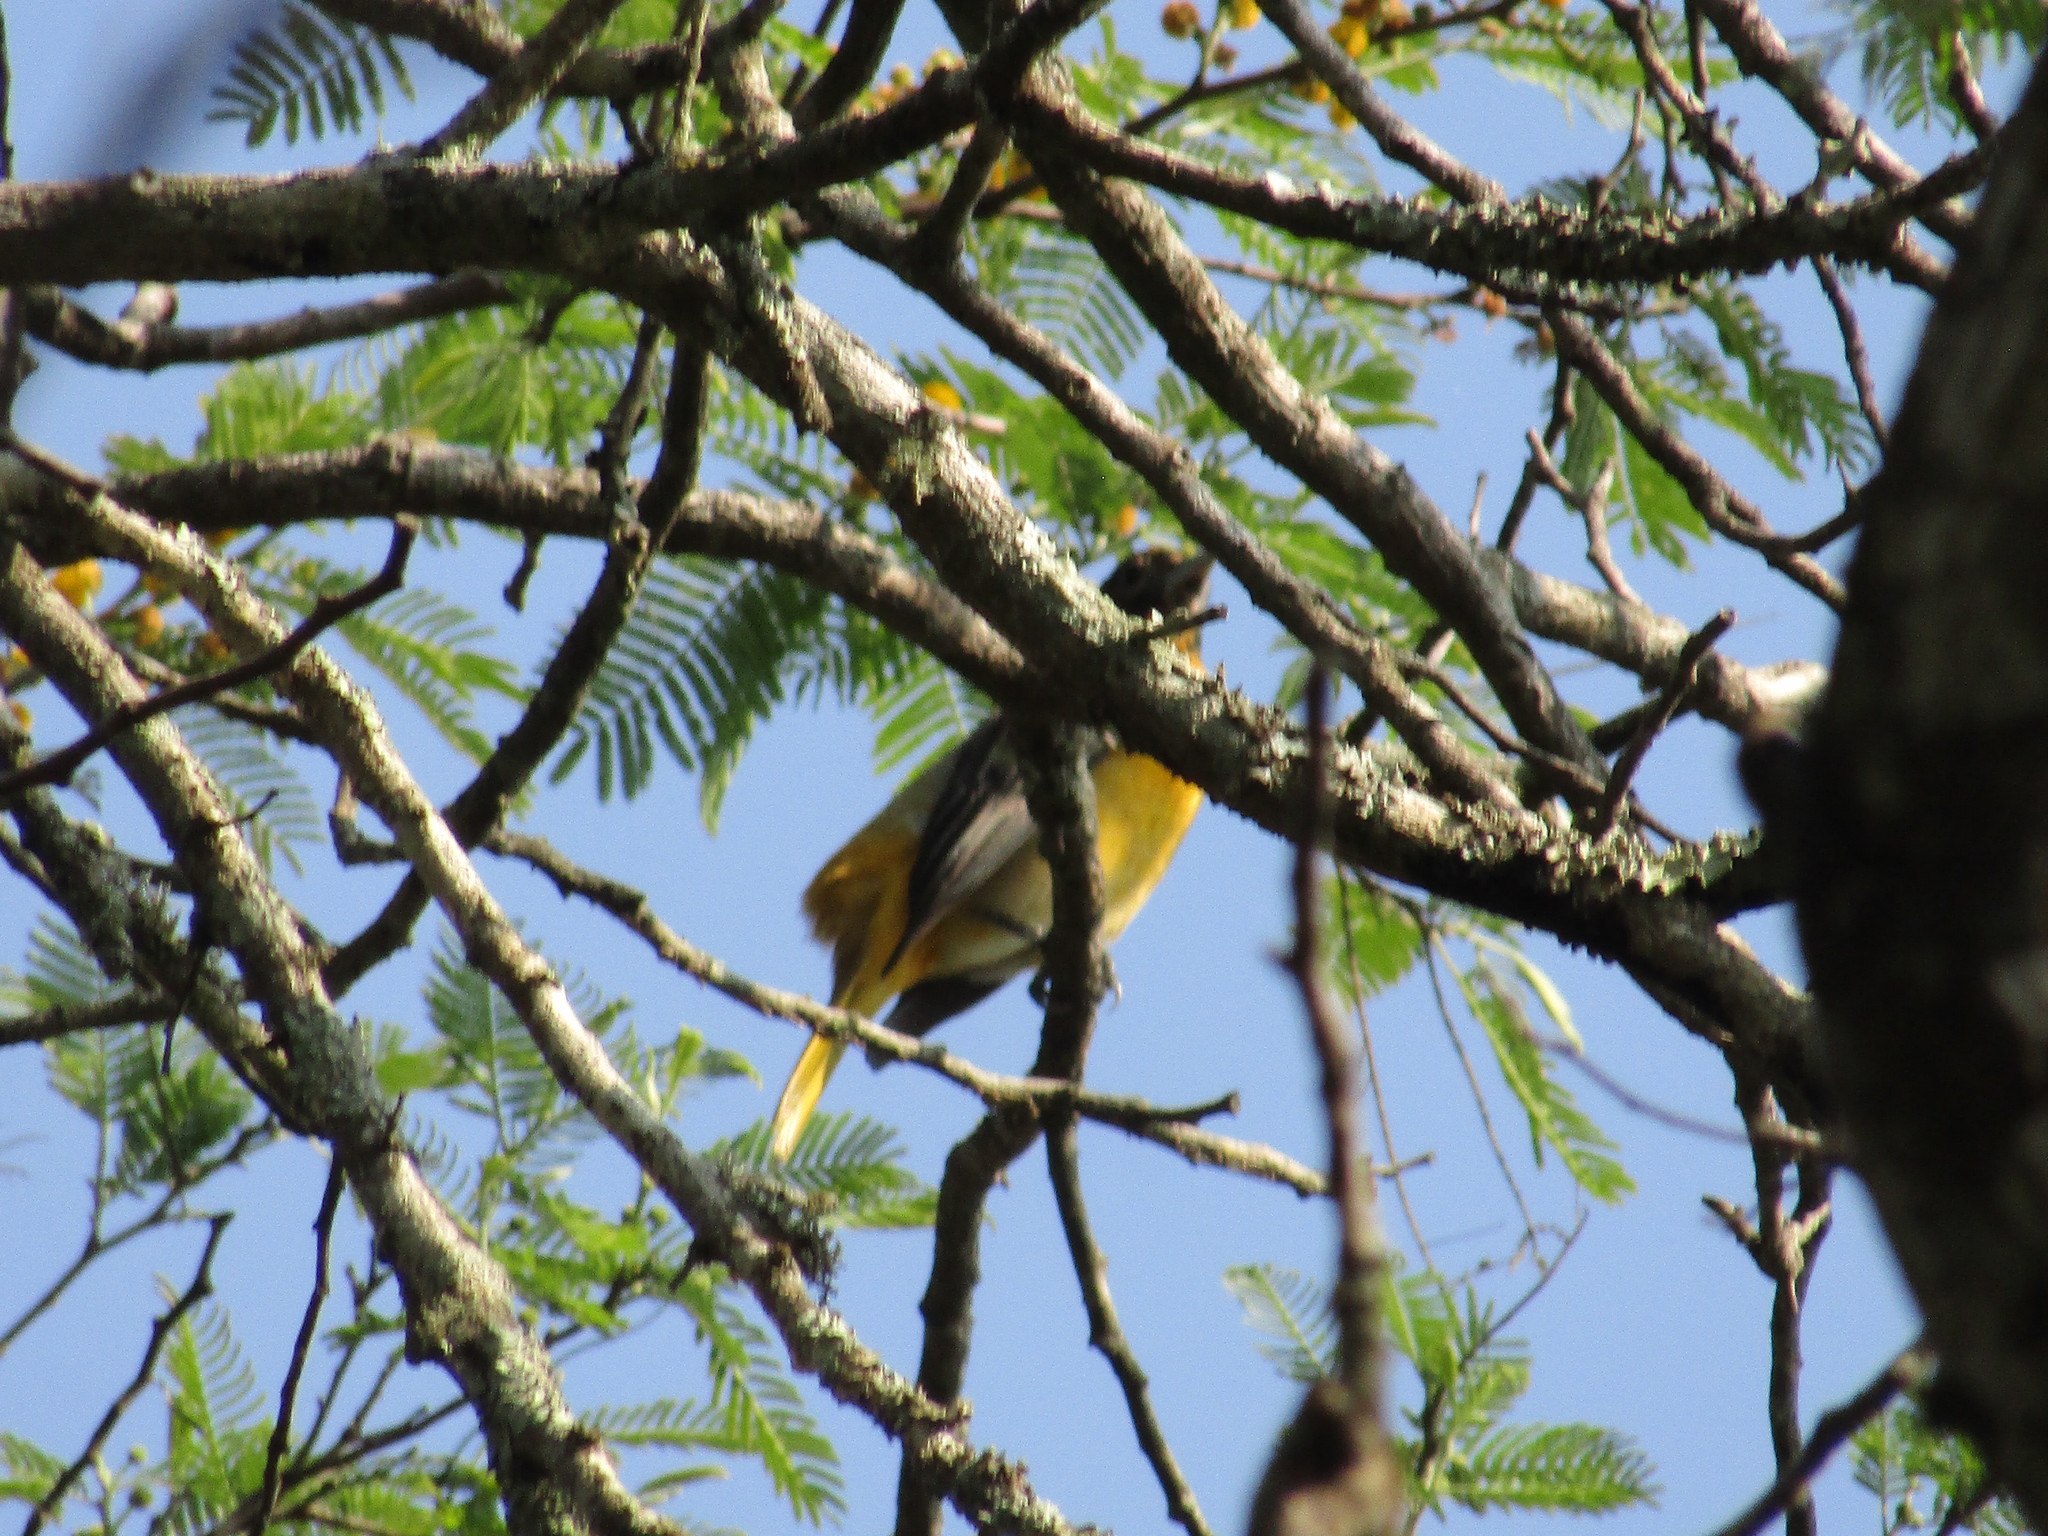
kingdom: Animalia
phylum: Chordata
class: Aves
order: Passeriformes
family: Icteridae
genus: Icterus
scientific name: Icterus galbula
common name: Baltimore oriole
